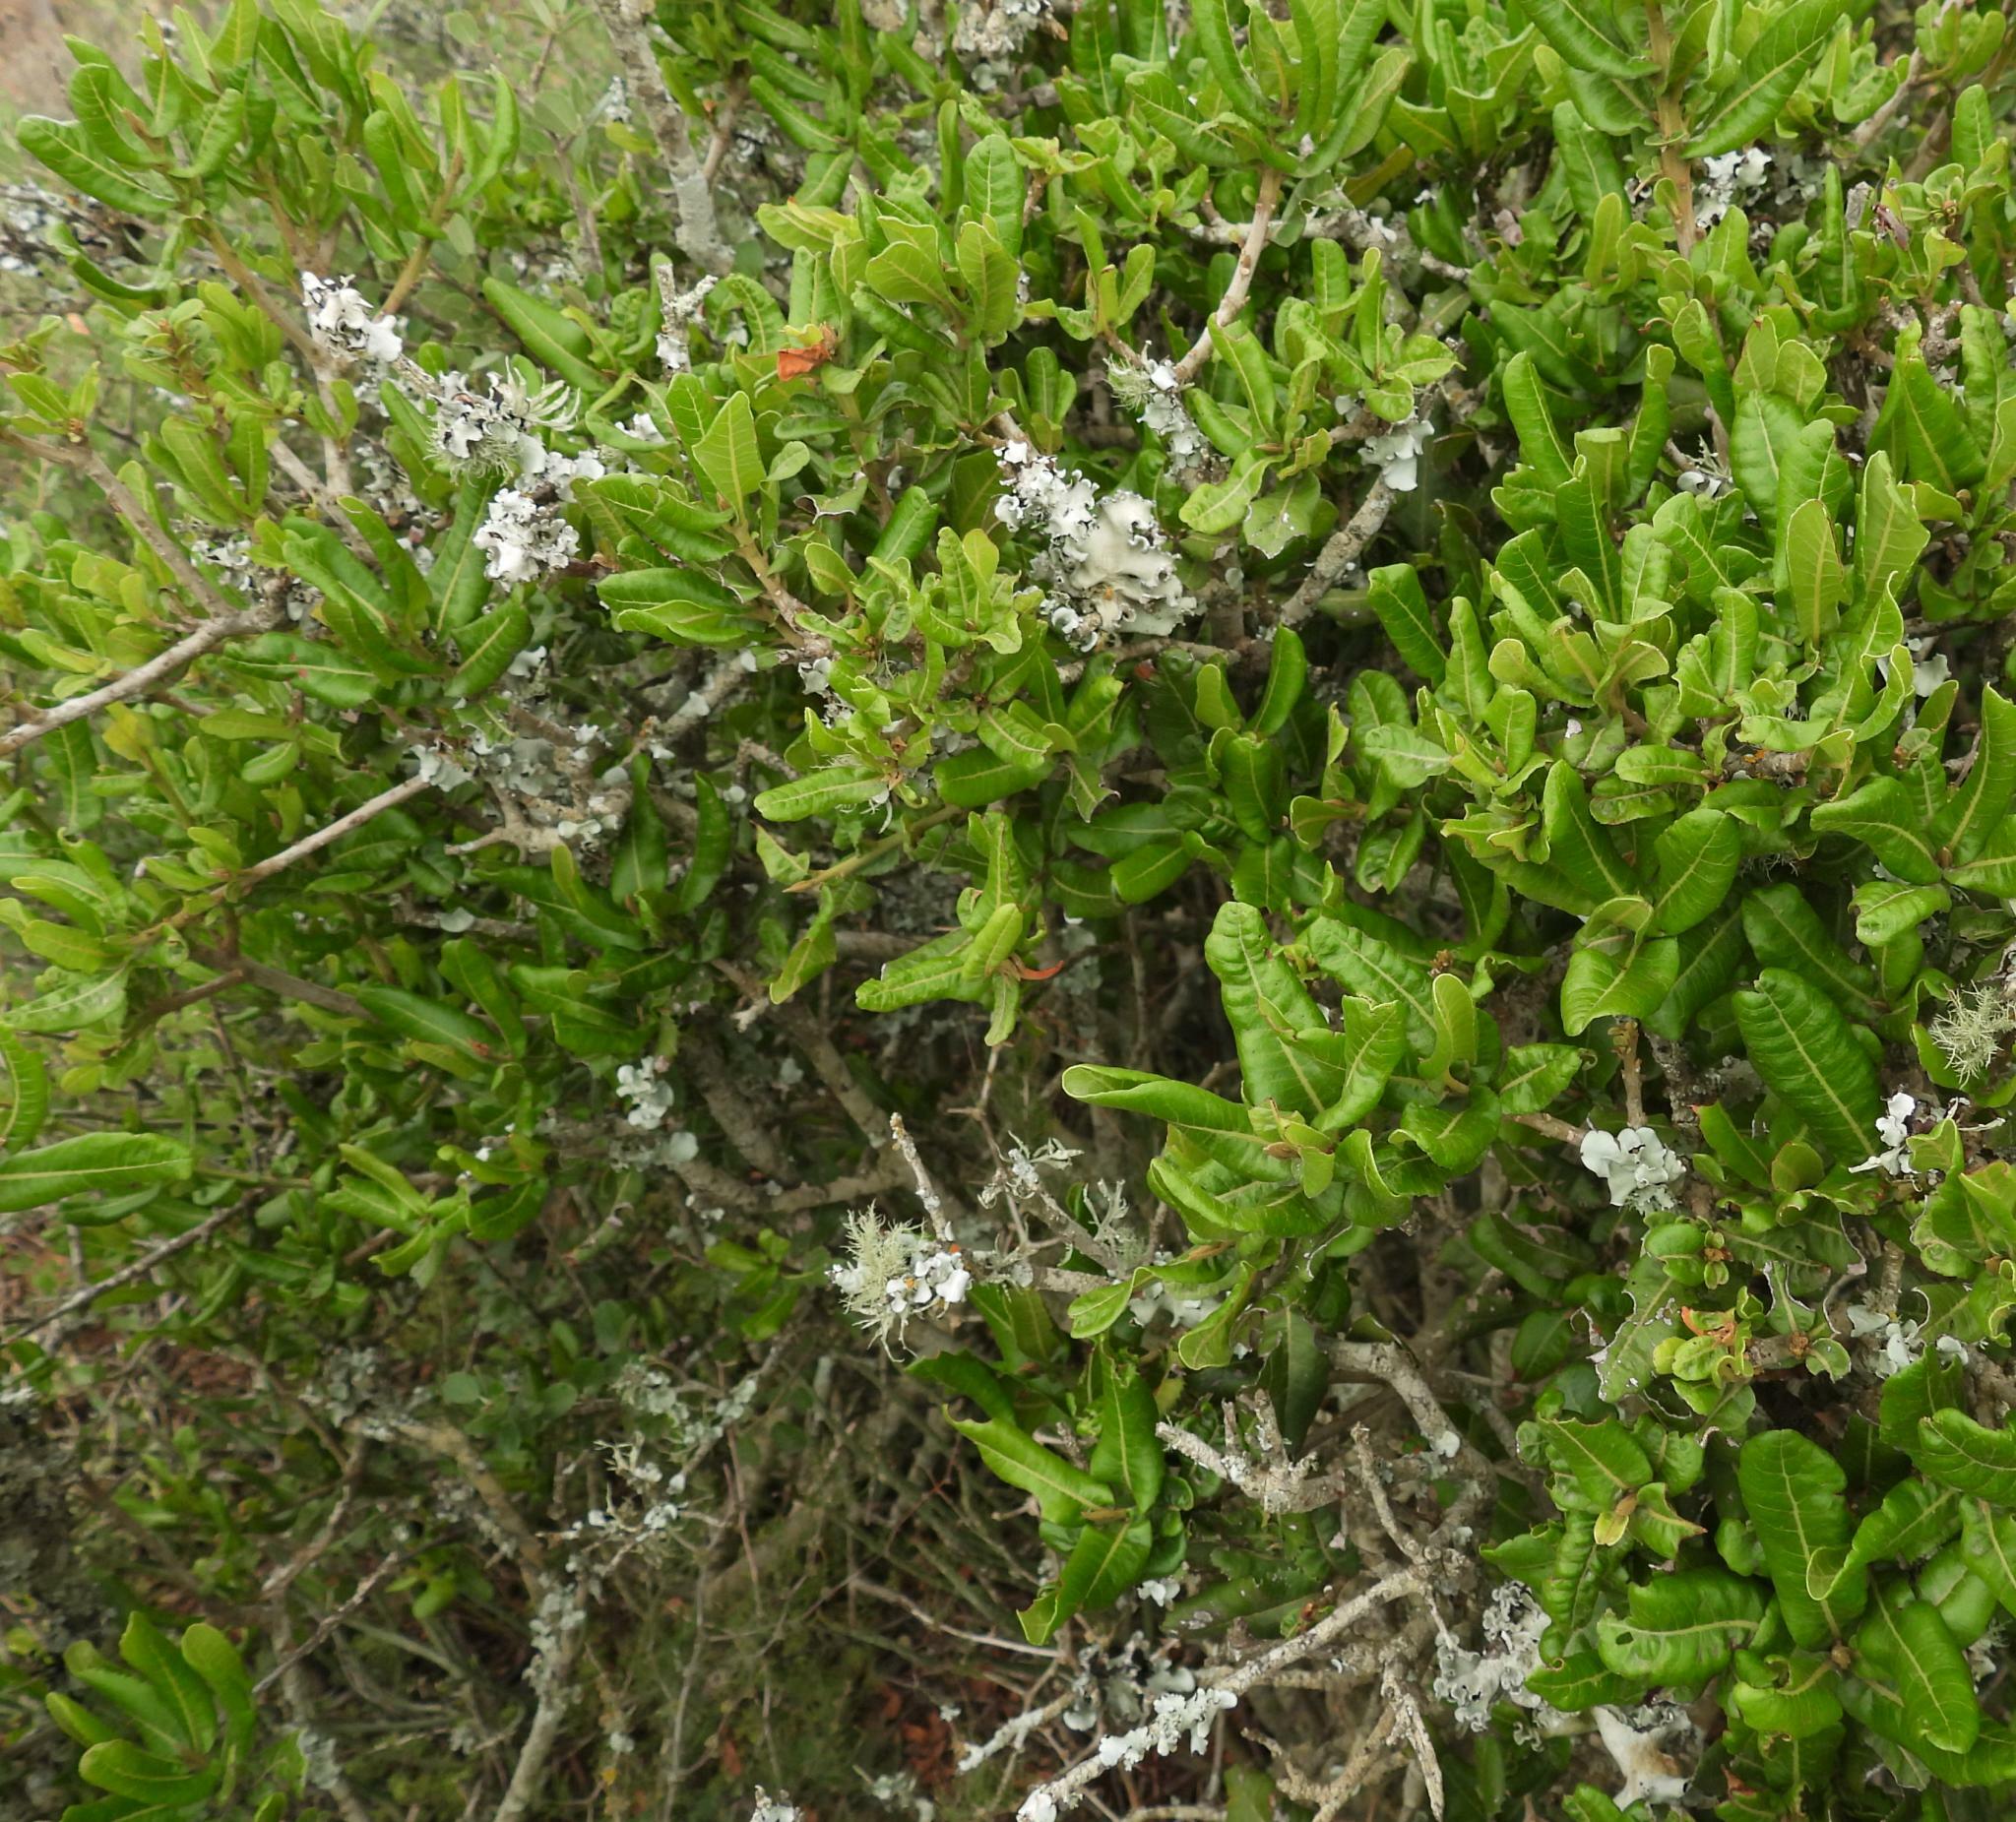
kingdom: Plantae
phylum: Tracheophyta
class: Magnoliopsida
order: Sapindales
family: Sapindaceae
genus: Pappea
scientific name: Pappea capensis
